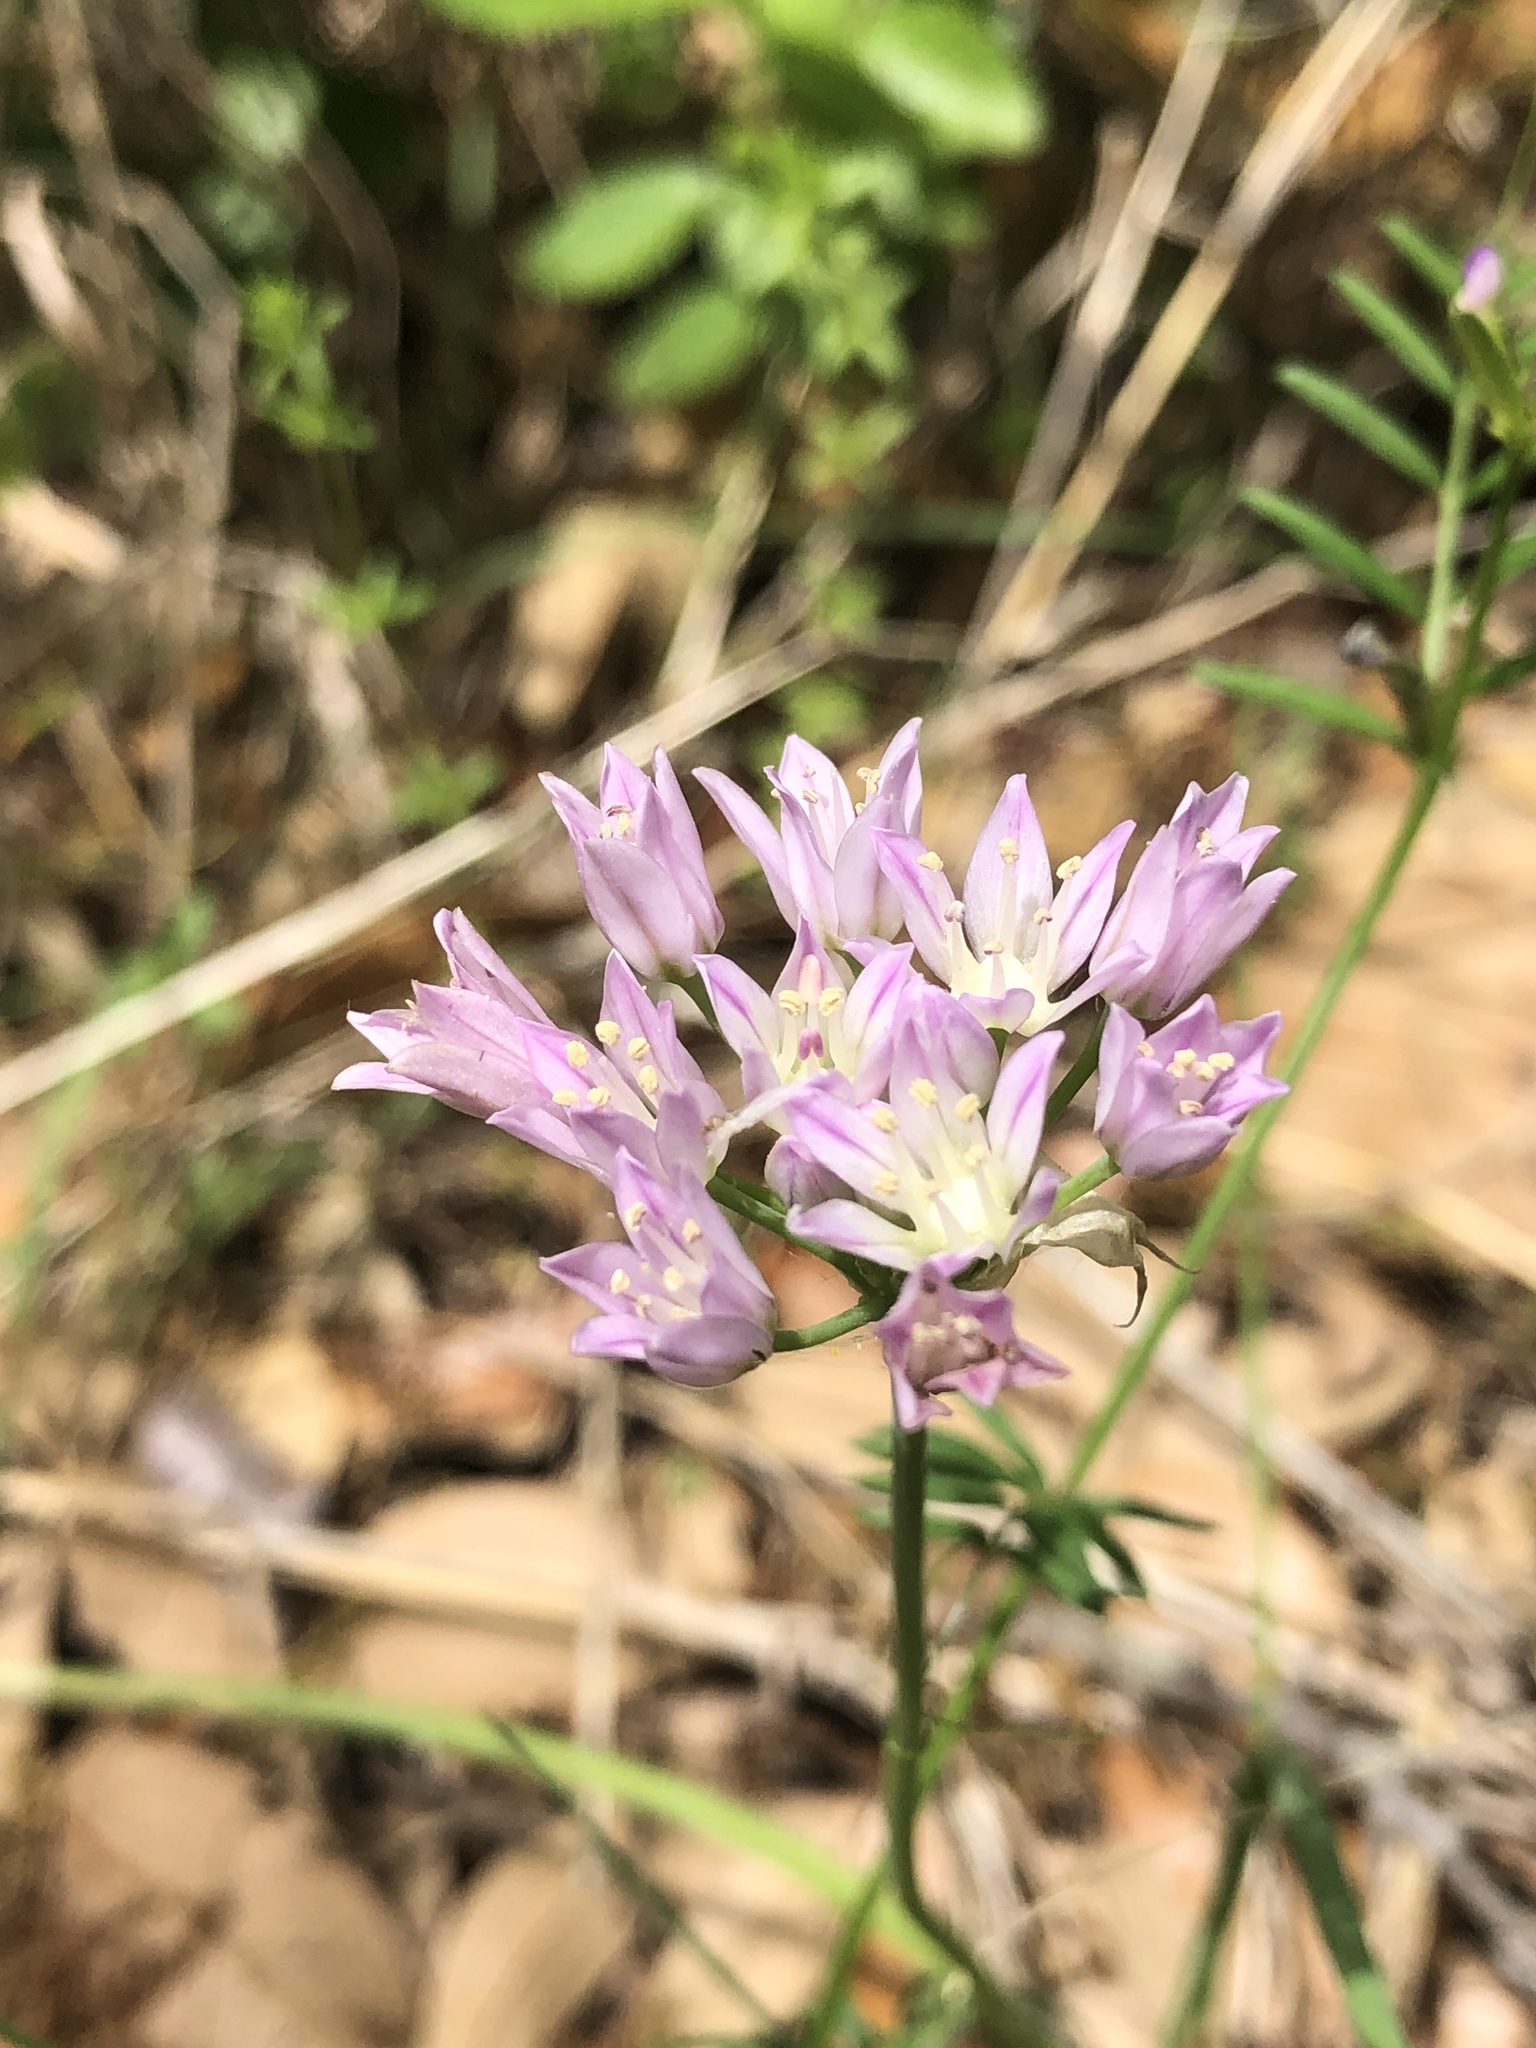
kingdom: Plantae
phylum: Tracheophyta
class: Liliopsida
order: Asparagales
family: Amaryllidaceae
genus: Allium
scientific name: Allium drummondii
